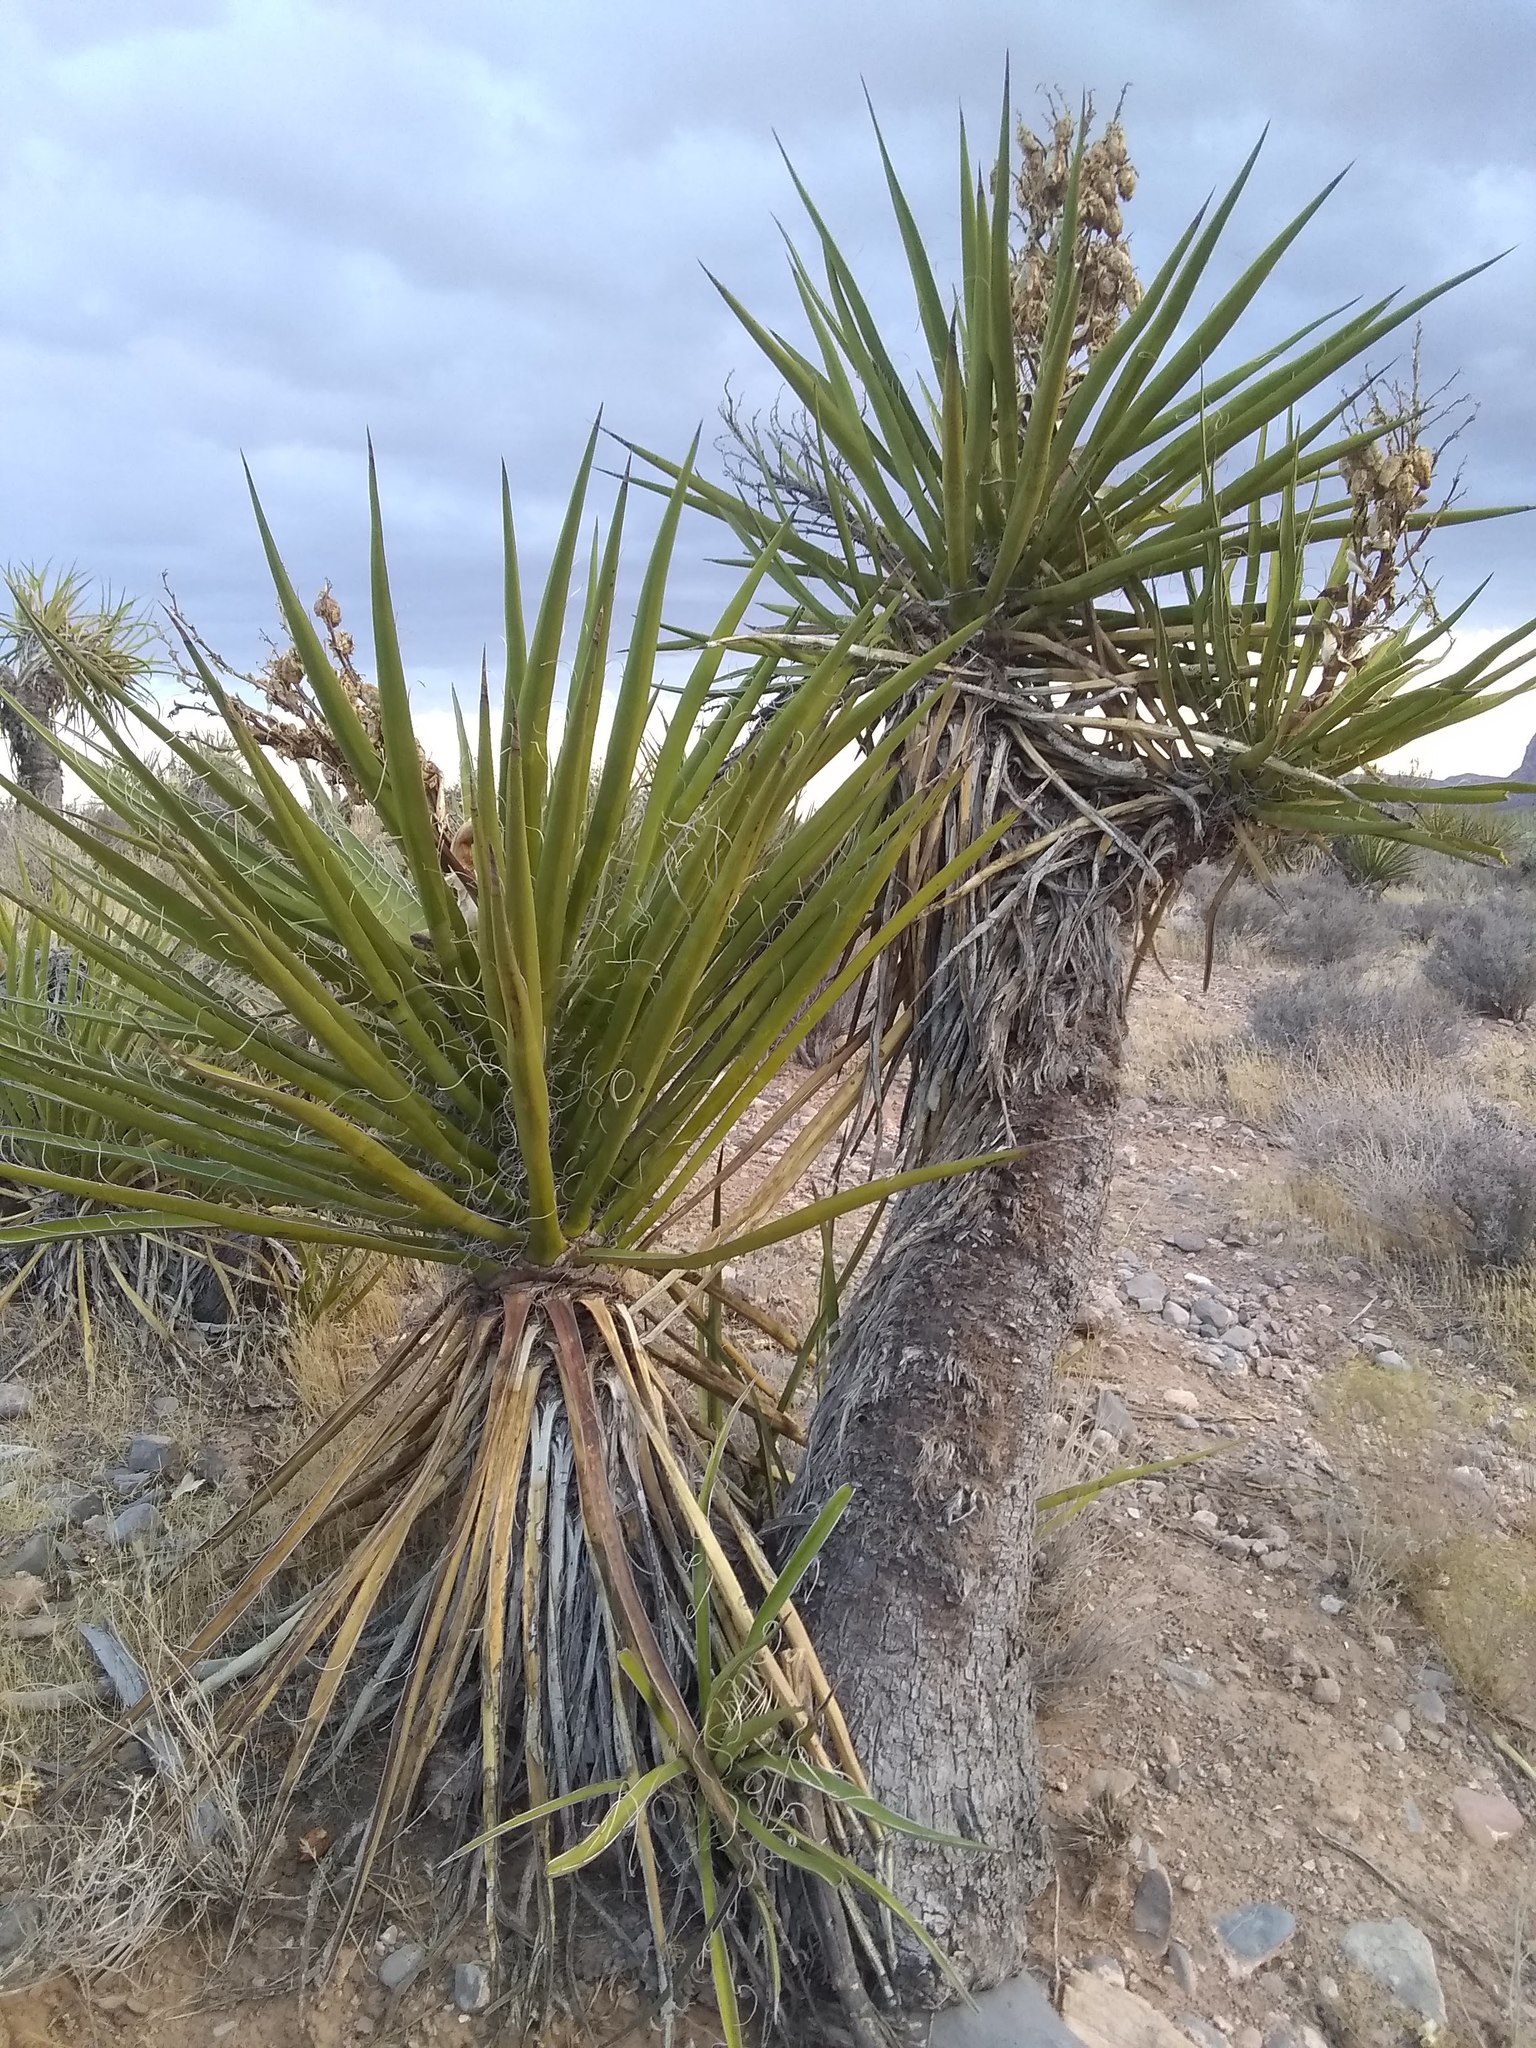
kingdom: Plantae
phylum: Tracheophyta
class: Liliopsida
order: Asparagales
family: Asparagaceae
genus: Yucca
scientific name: Yucca schidigera
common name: Mojave yucca
